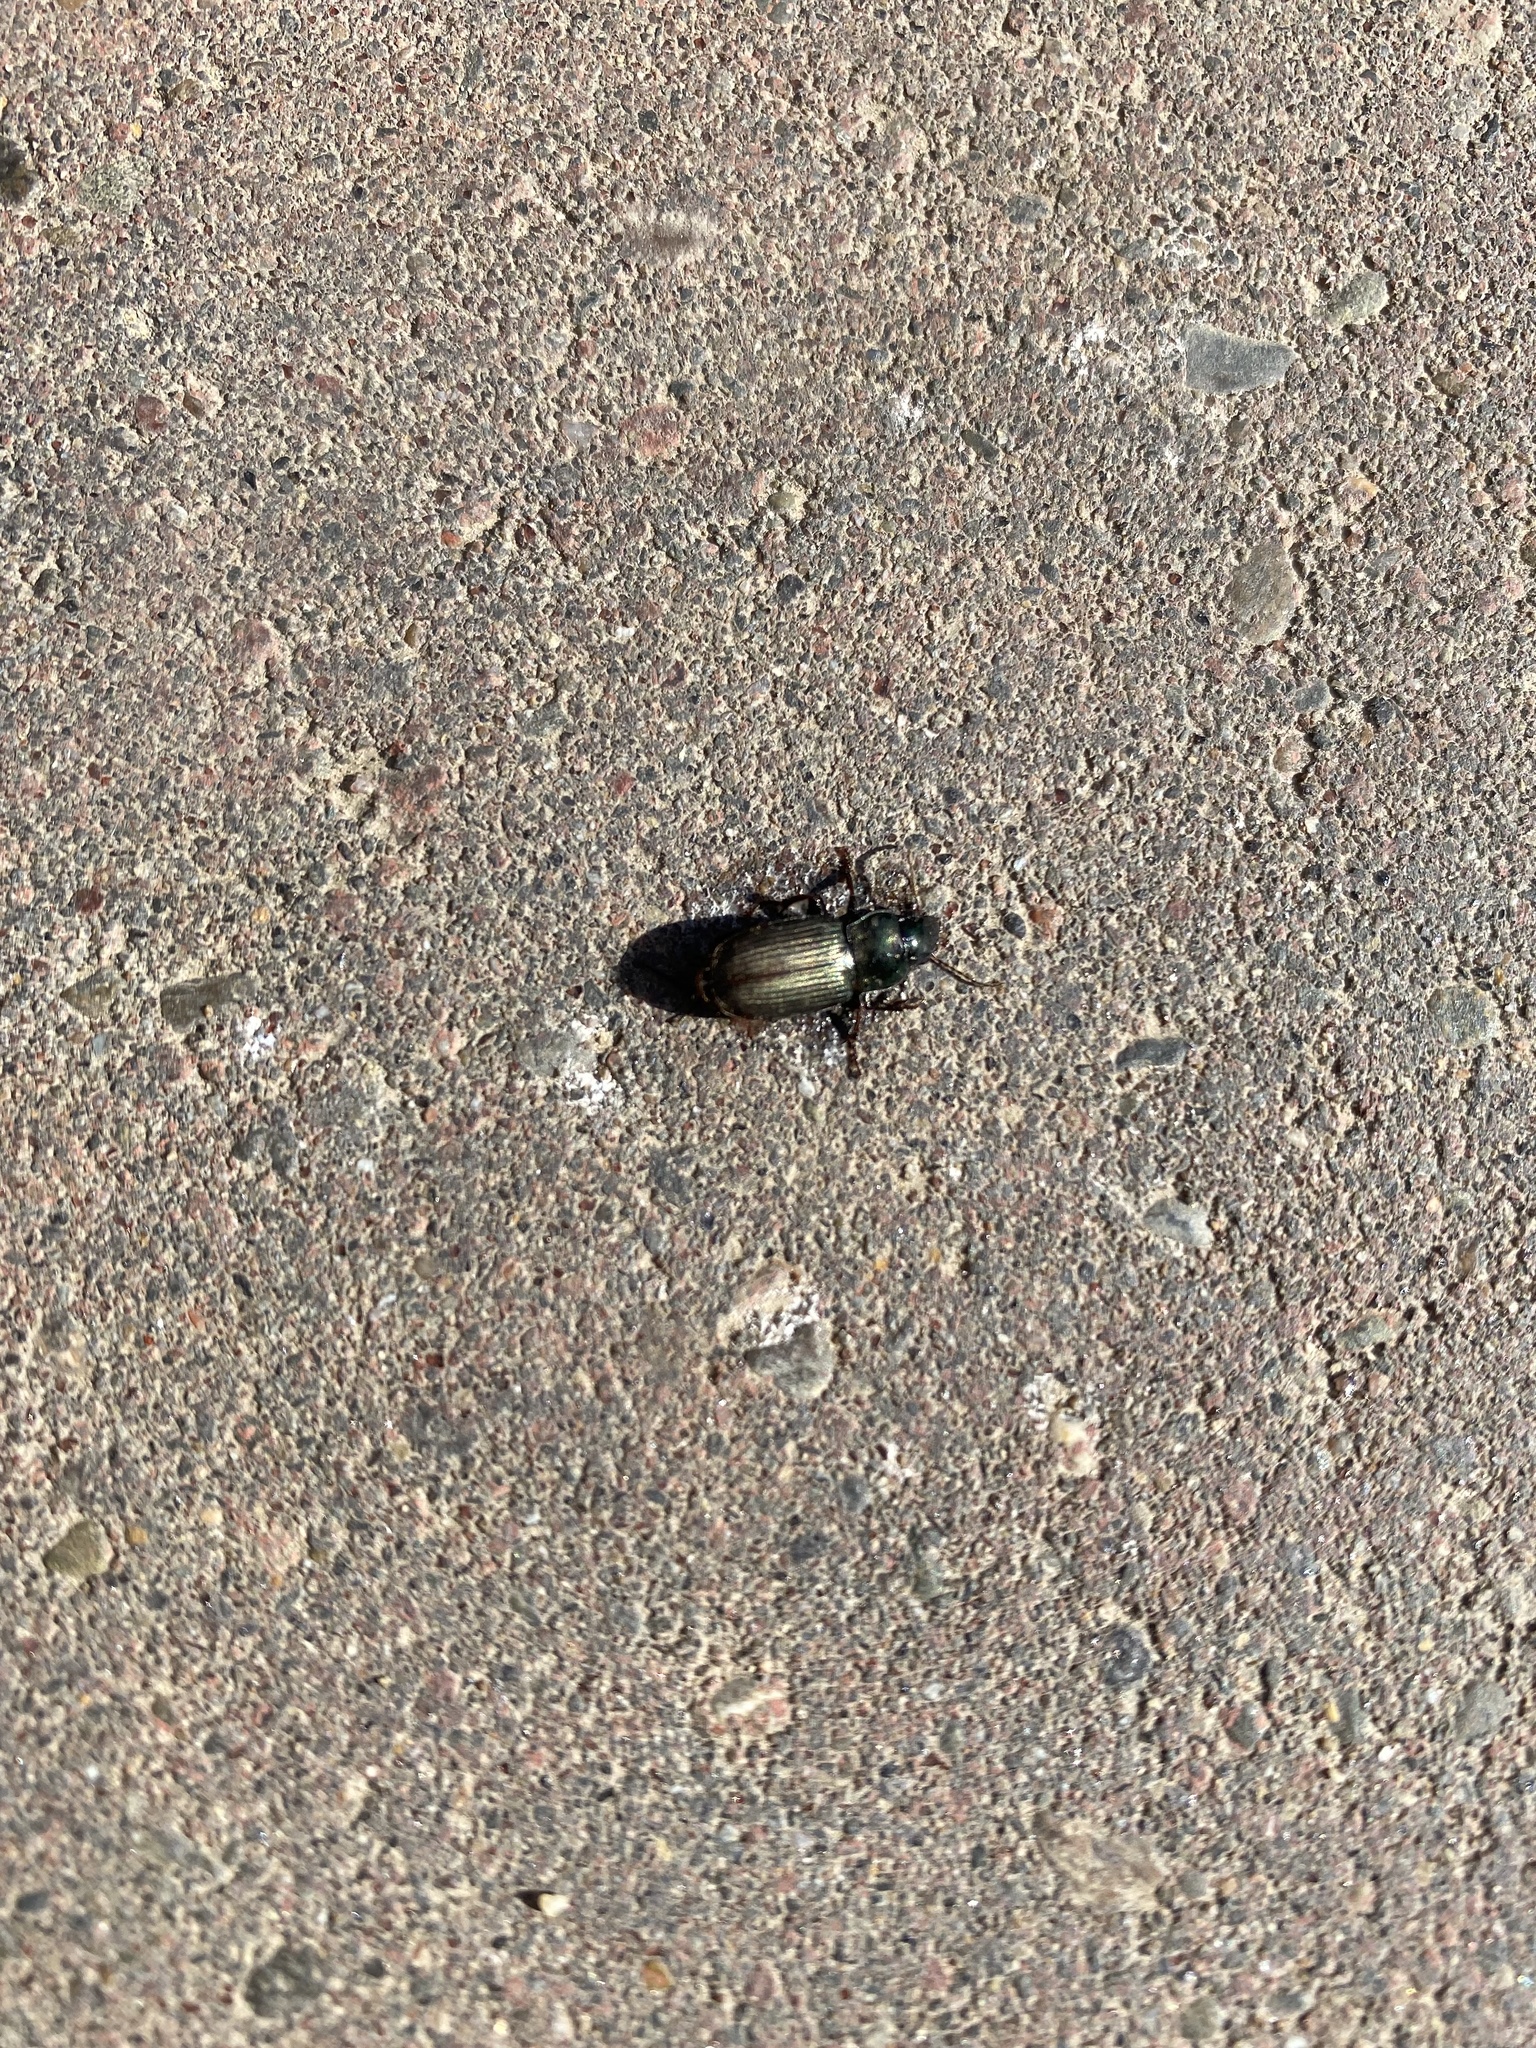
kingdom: Animalia
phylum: Arthropoda
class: Insecta
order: Coleoptera
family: Carabidae
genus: Harpalus
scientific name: Harpalus affinis
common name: Polychrome harp ground beetle
